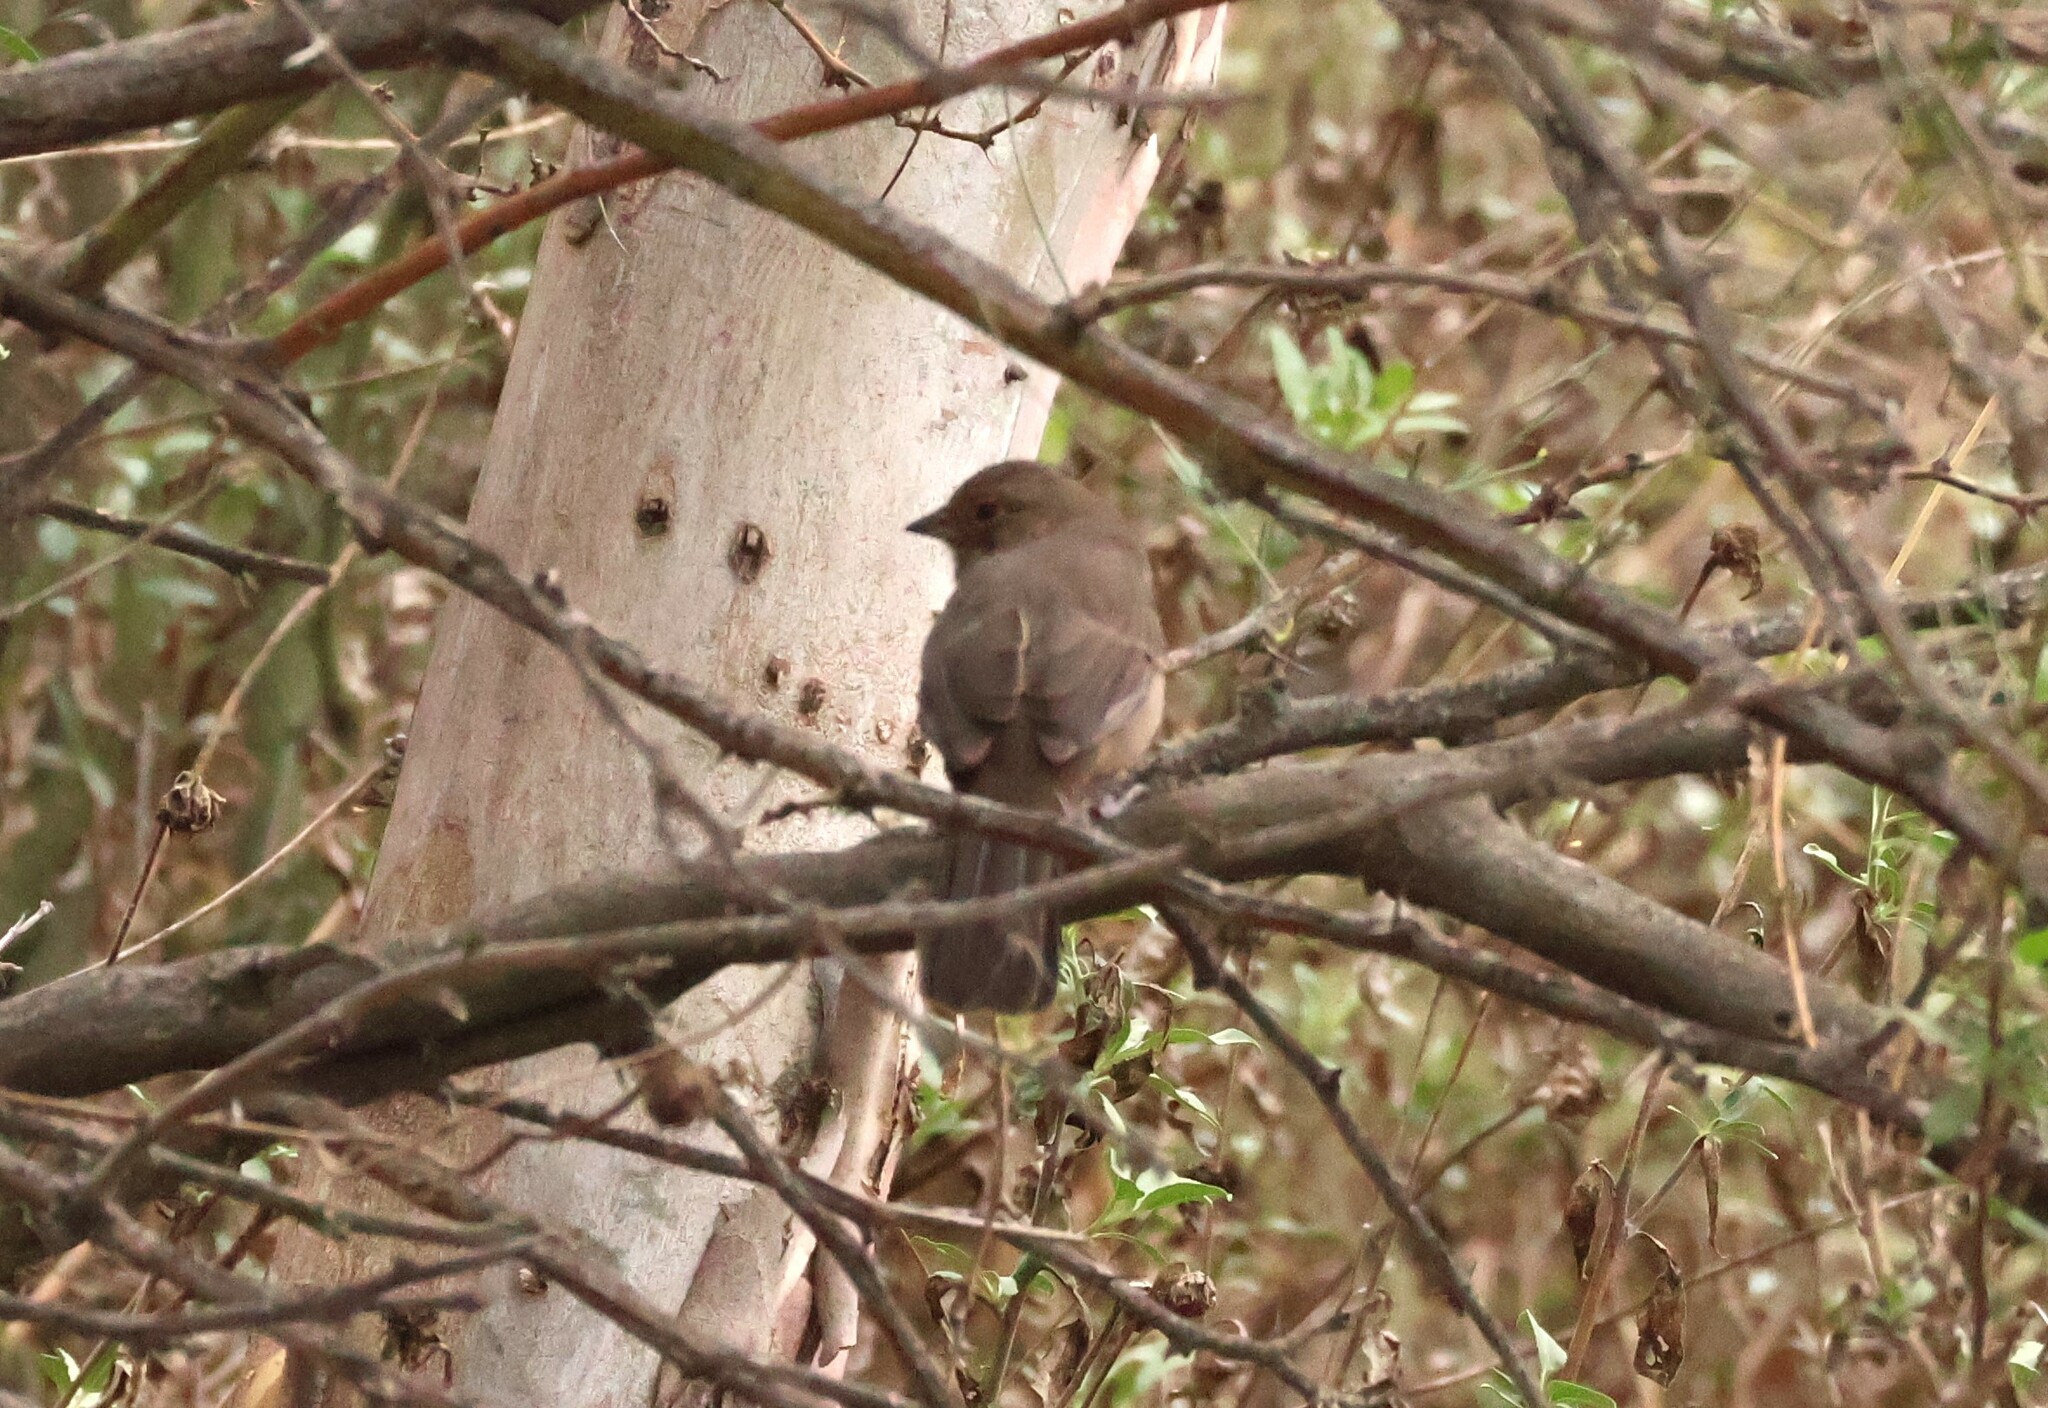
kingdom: Animalia
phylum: Chordata
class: Aves
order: Passeriformes
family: Passerellidae
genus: Melozone
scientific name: Melozone crissalis
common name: California towhee
